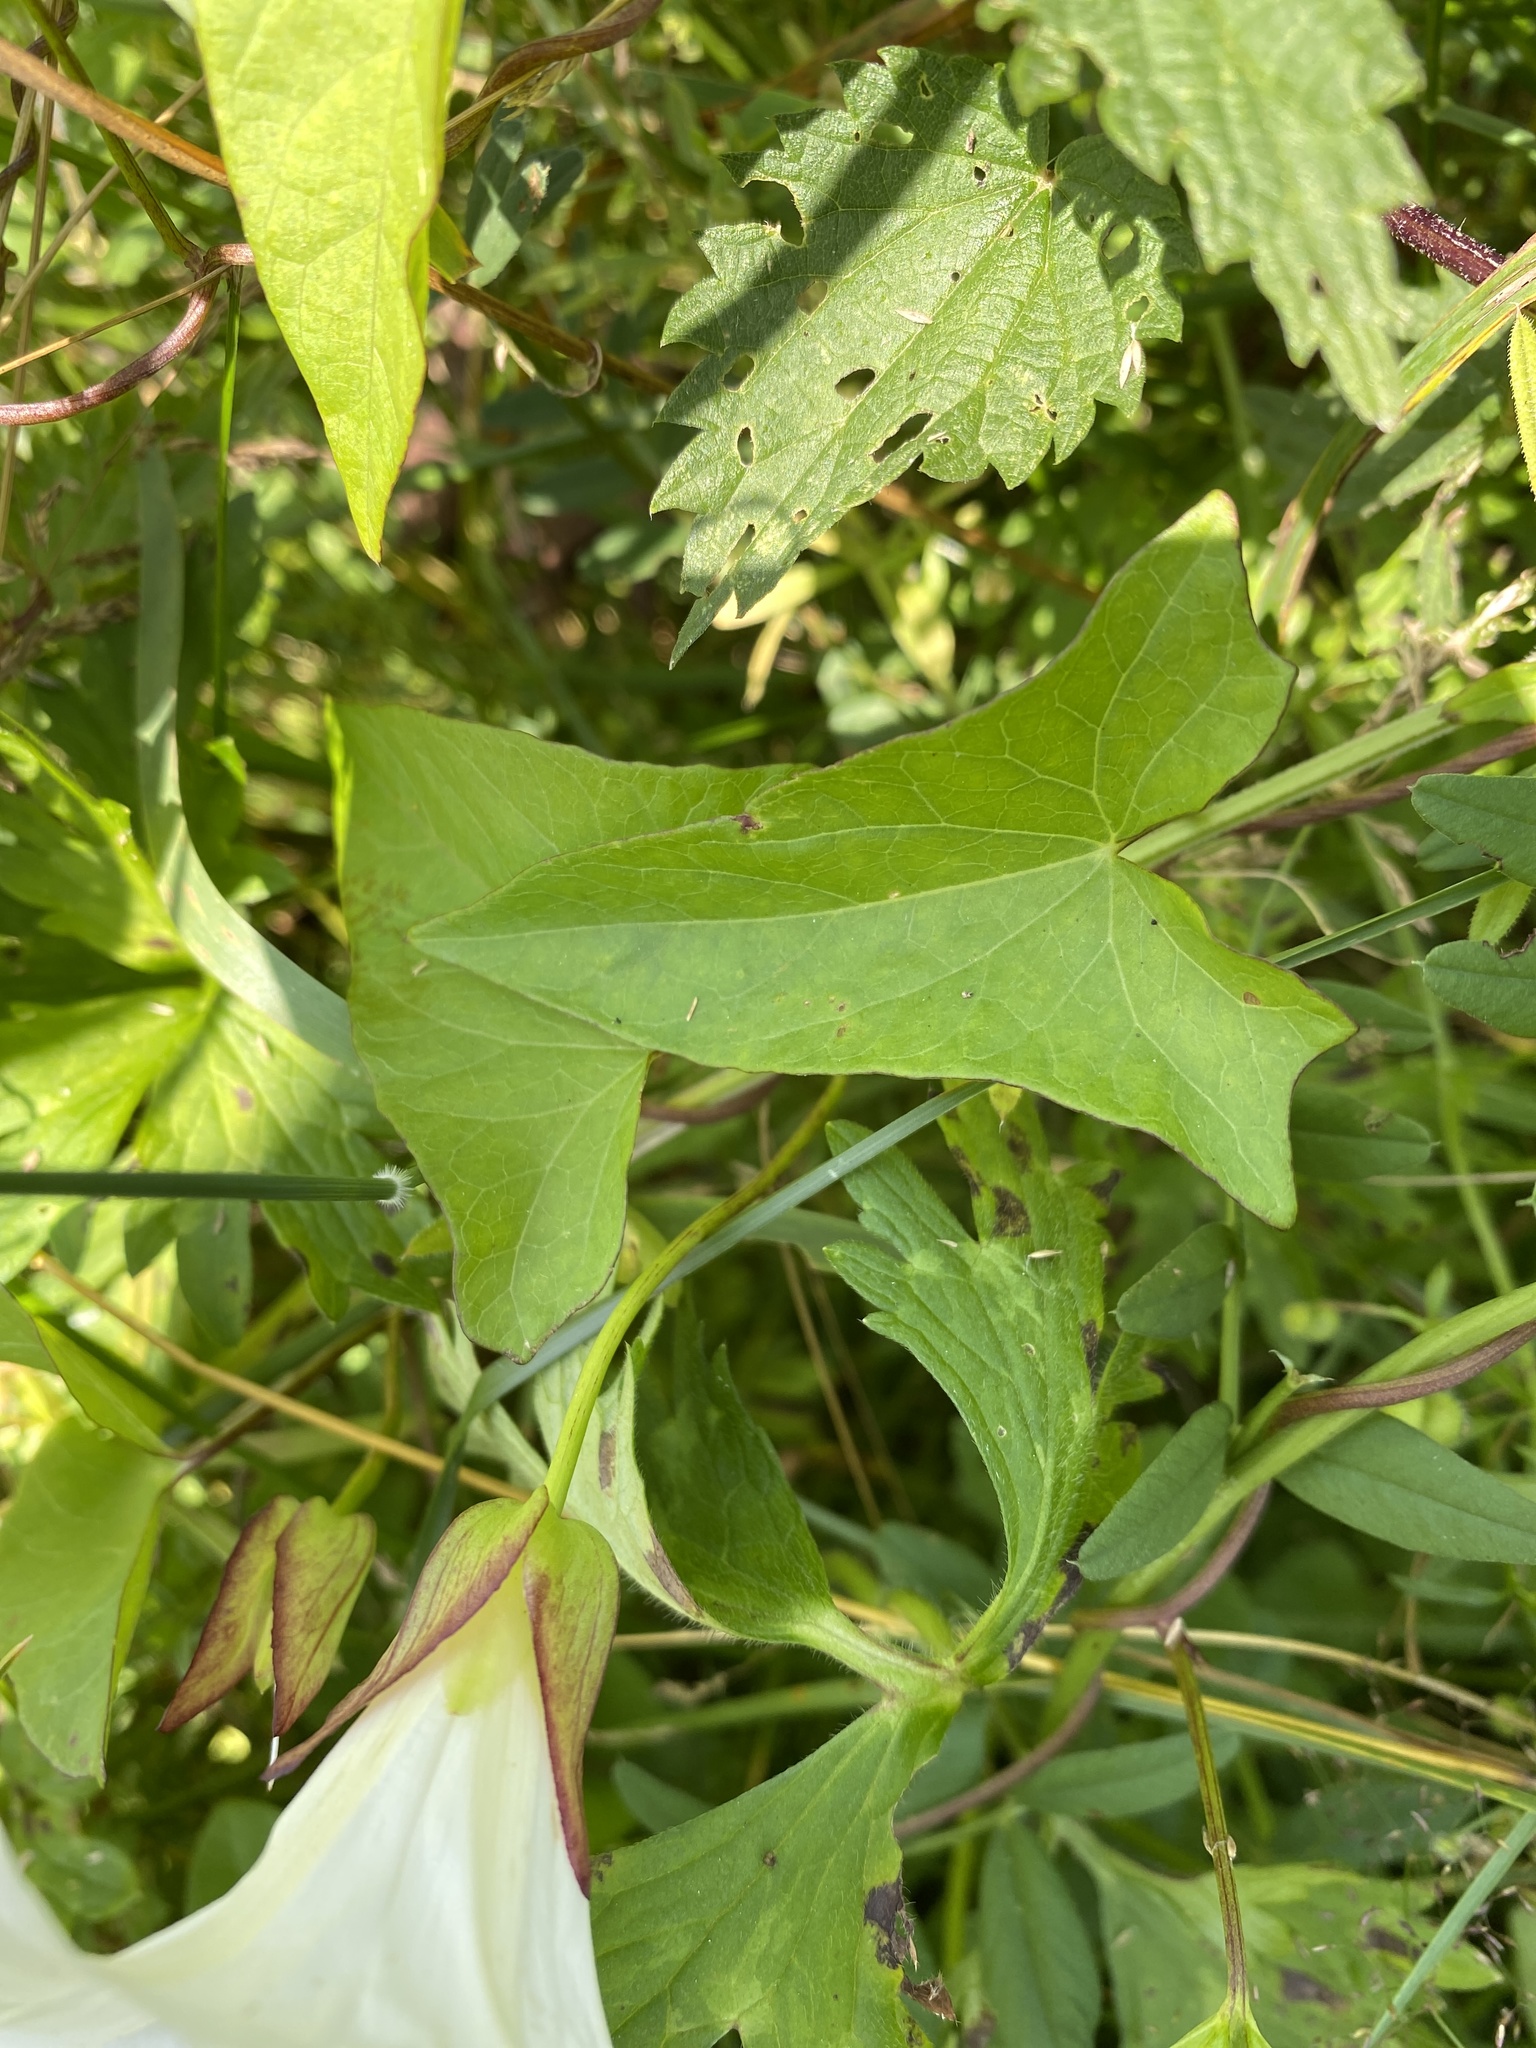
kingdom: Plantae
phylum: Tracheophyta
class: Magnoliopsida
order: Solanales
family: Convolvulaceae
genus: Calystegia
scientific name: Calystegia sepium
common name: Hedge bindweed
